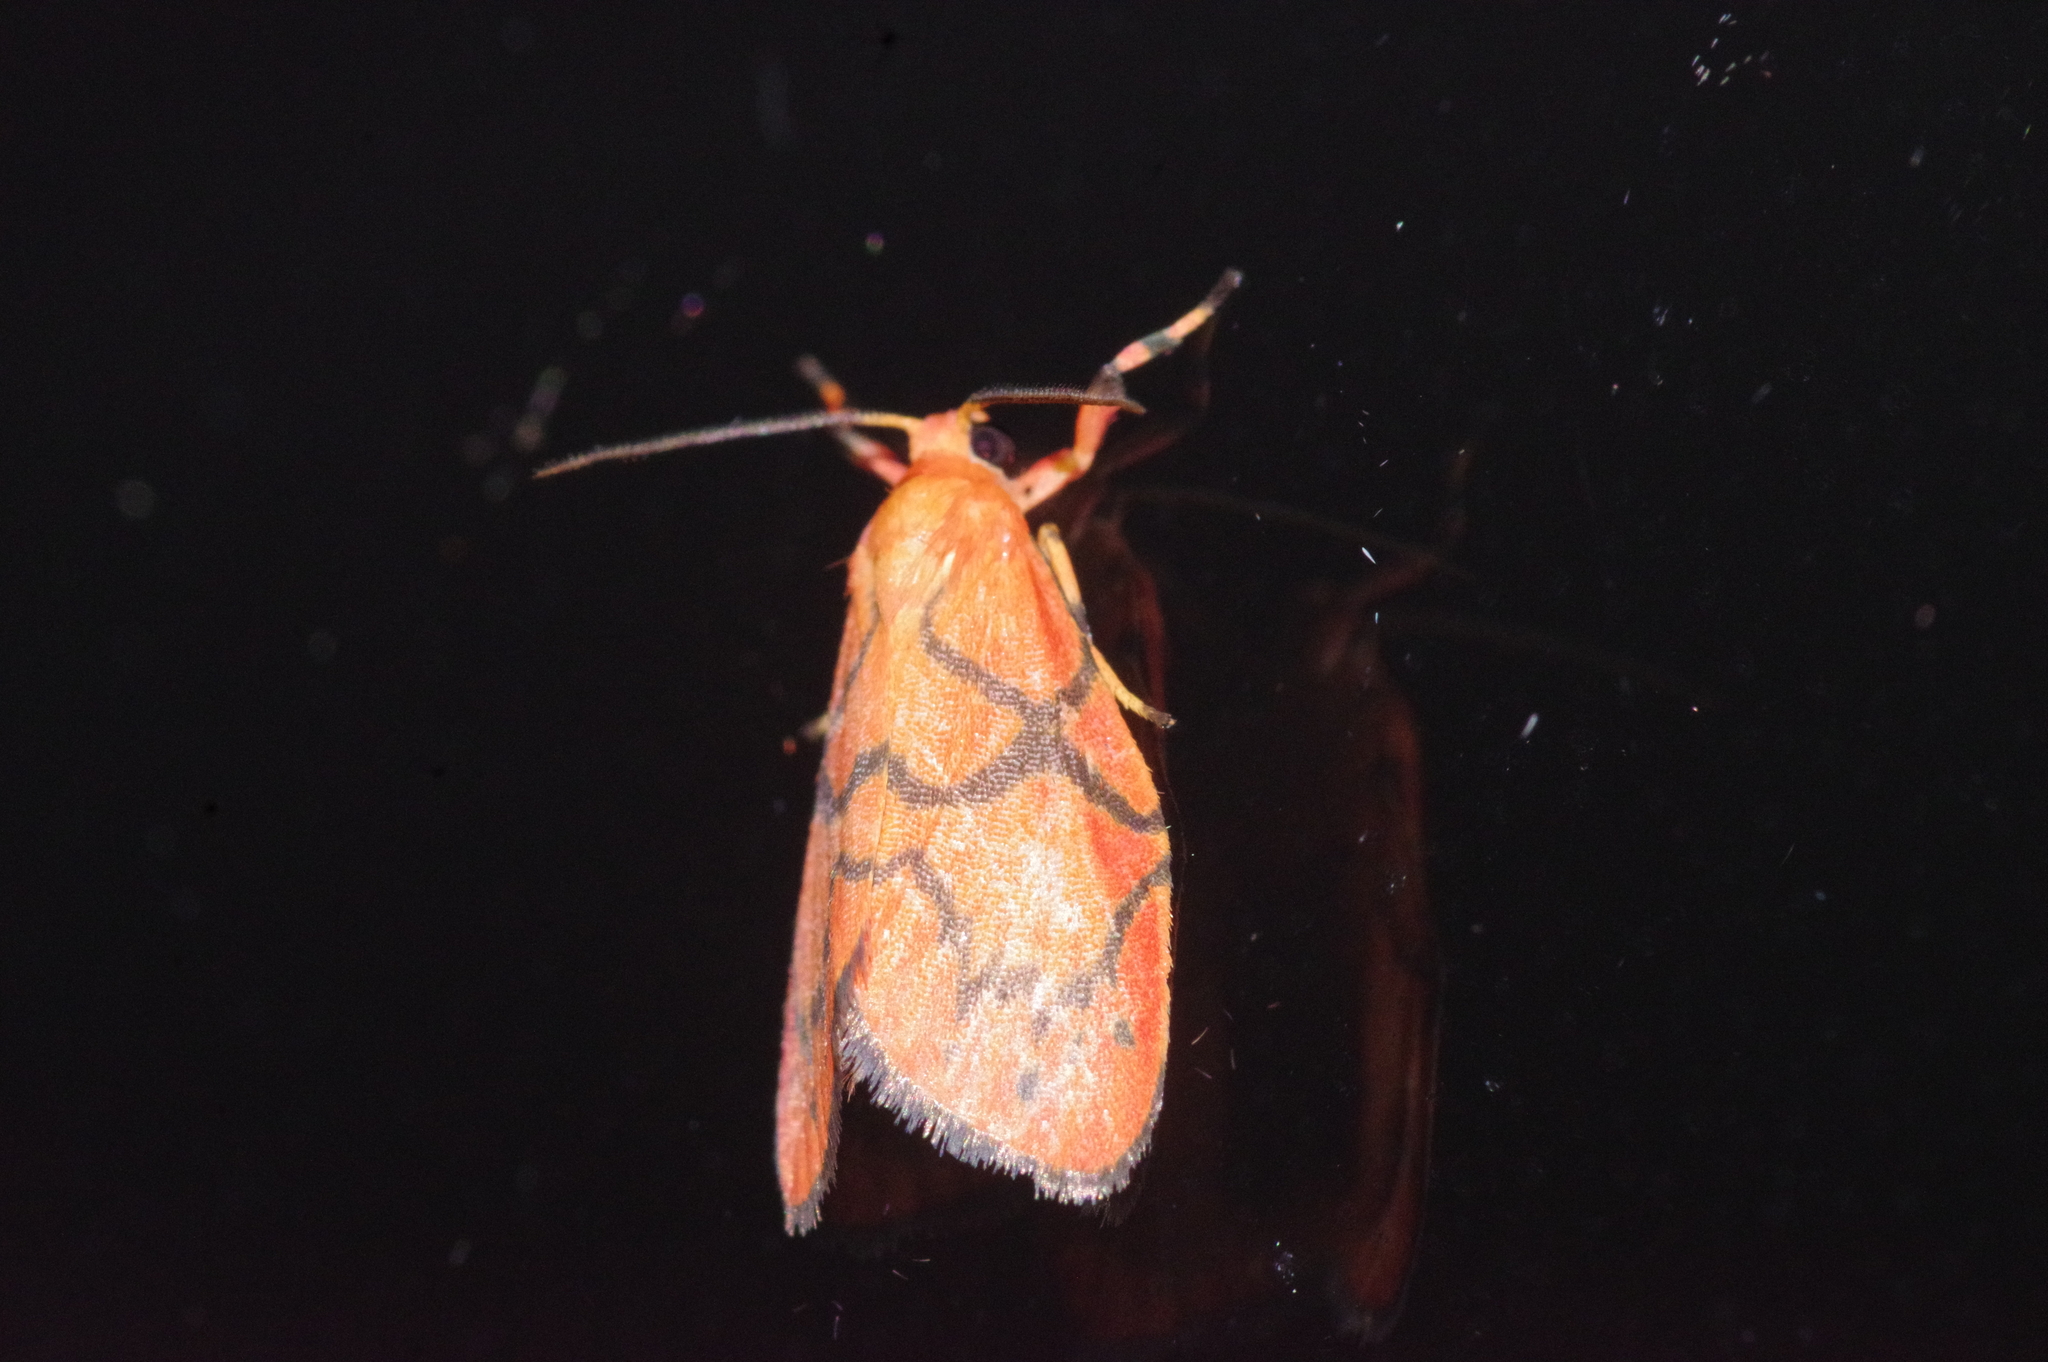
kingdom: Animalia
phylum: Arthropoda
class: Insecta
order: Lepidoptera
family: Erebidae
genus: Aberrasine
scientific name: Aberrasine aberrans
